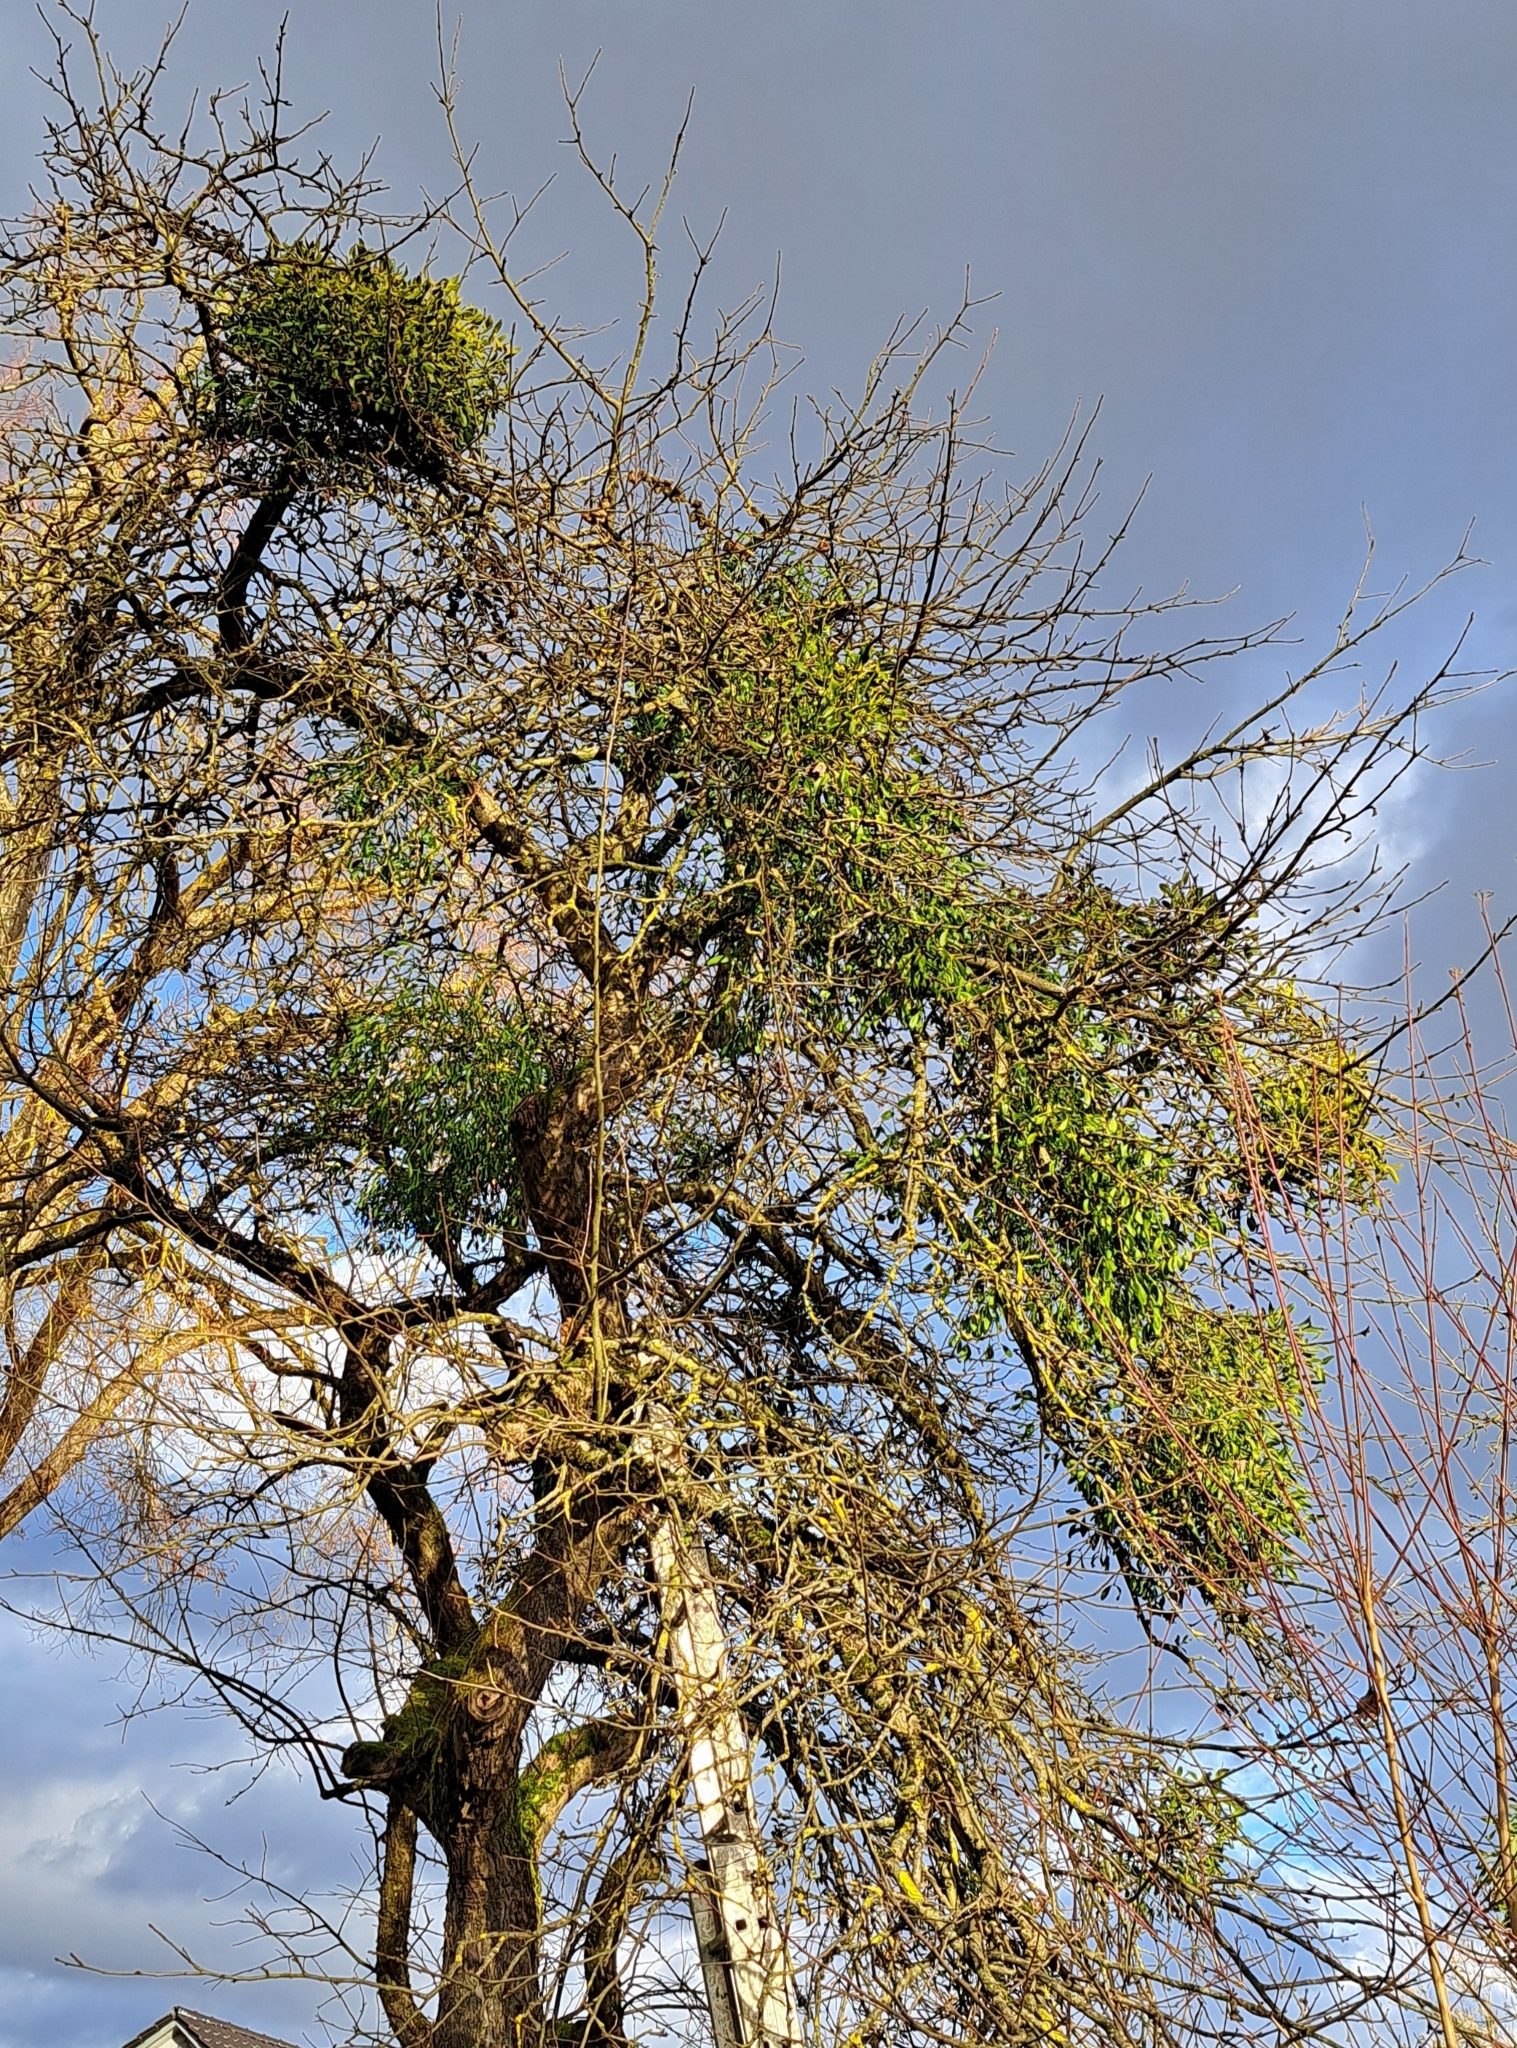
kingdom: Plantae
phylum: Tracheophyta
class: Magnoliopsida
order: Santalales
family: Viscaceae
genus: Viscum
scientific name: Viscum album
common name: Mistletoe
